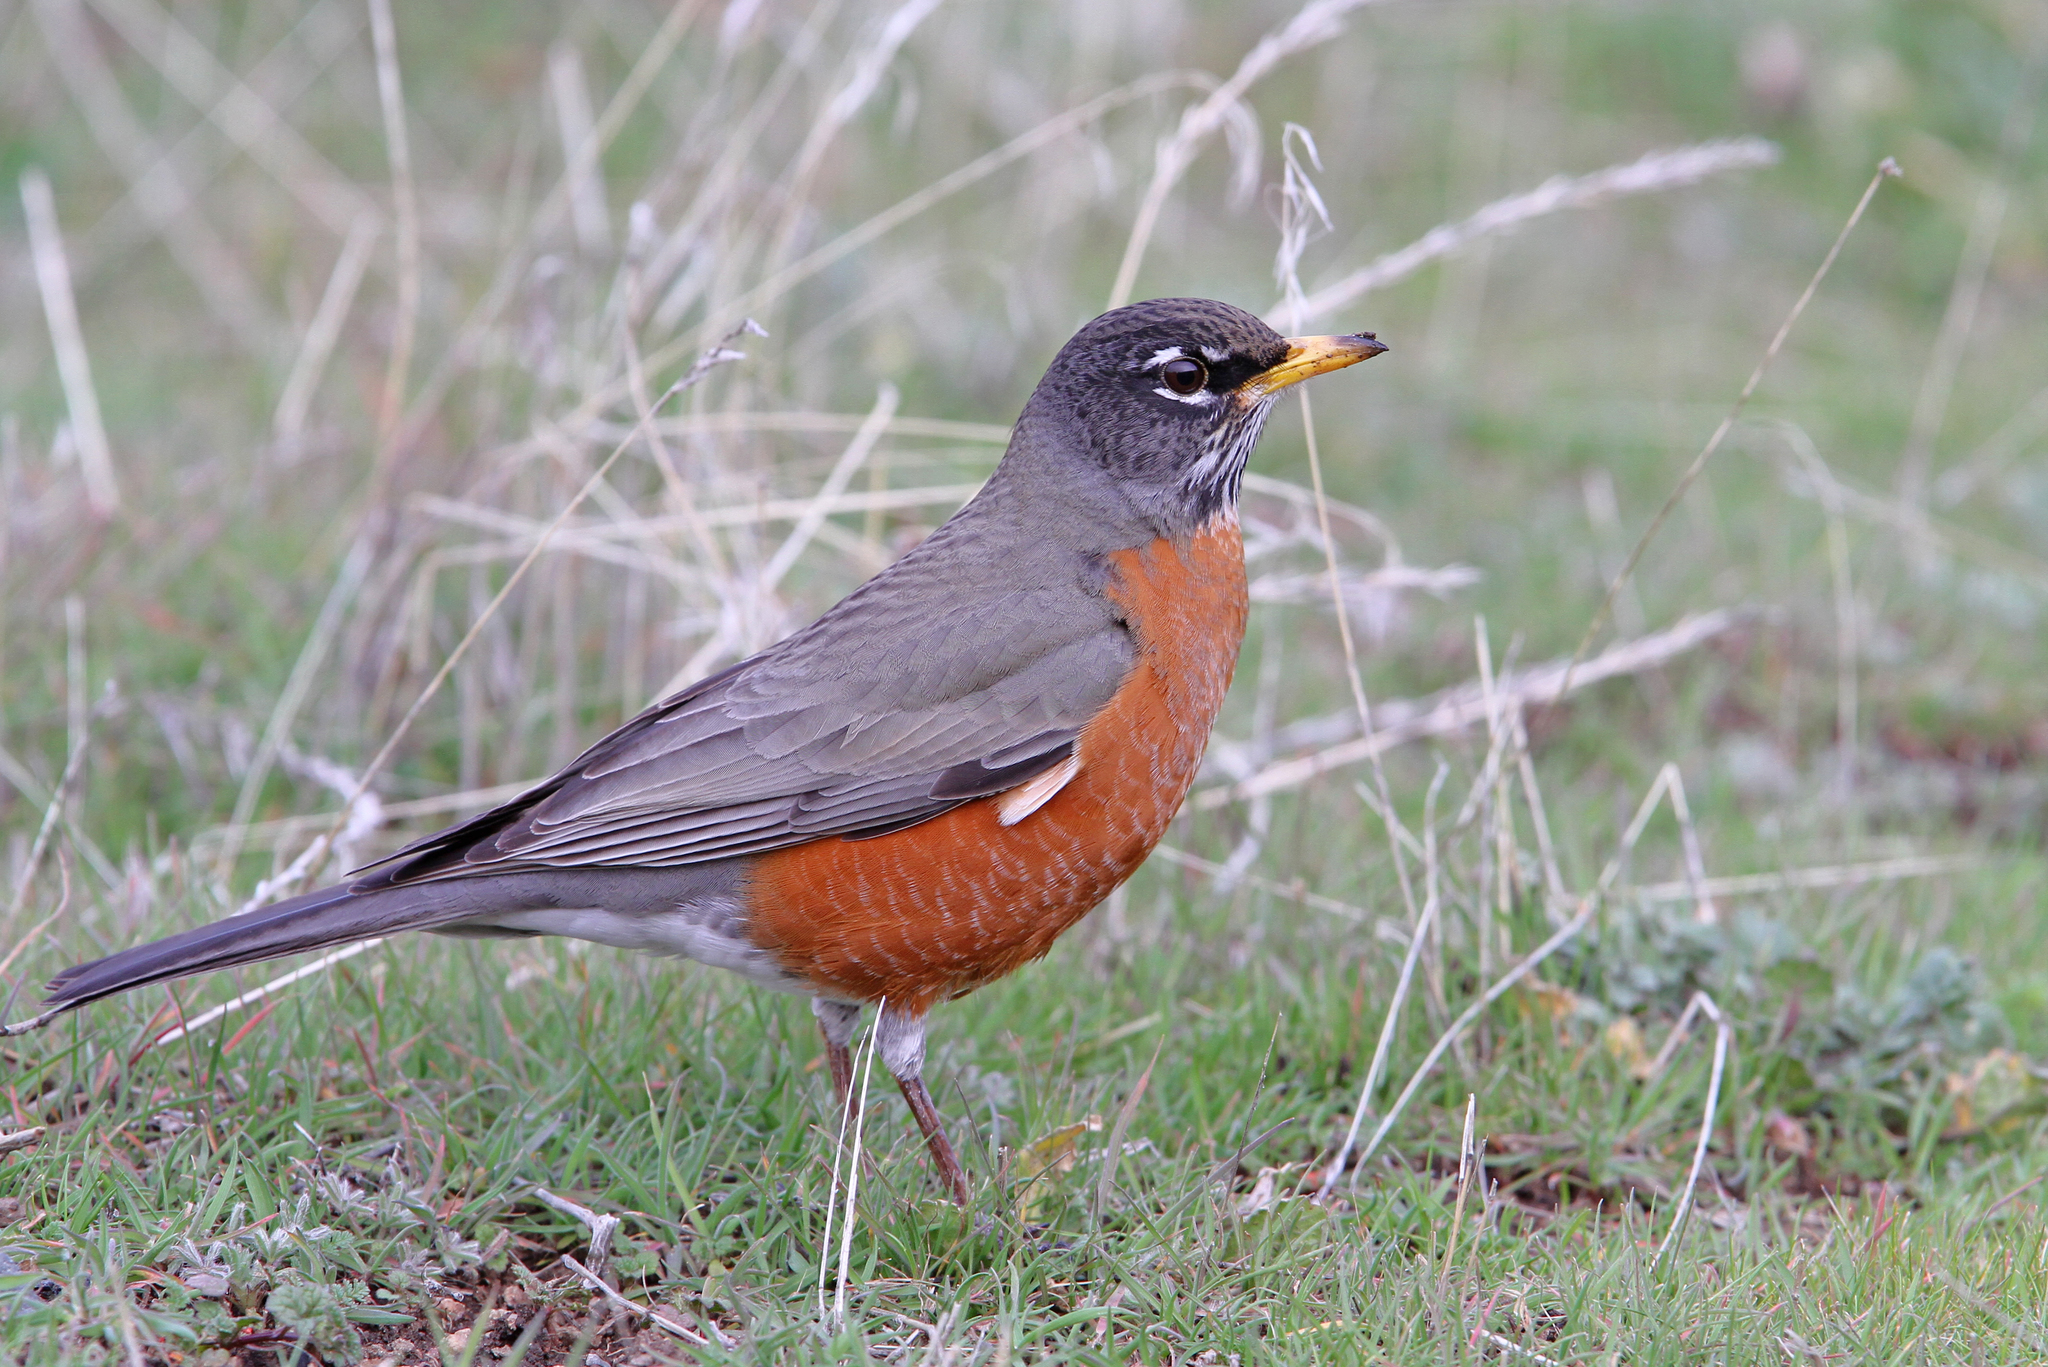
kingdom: Animalia
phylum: Chordata
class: Aves
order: Passeriformes
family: Turdidae
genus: Turdus
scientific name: Turdus migratorius
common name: American robin
